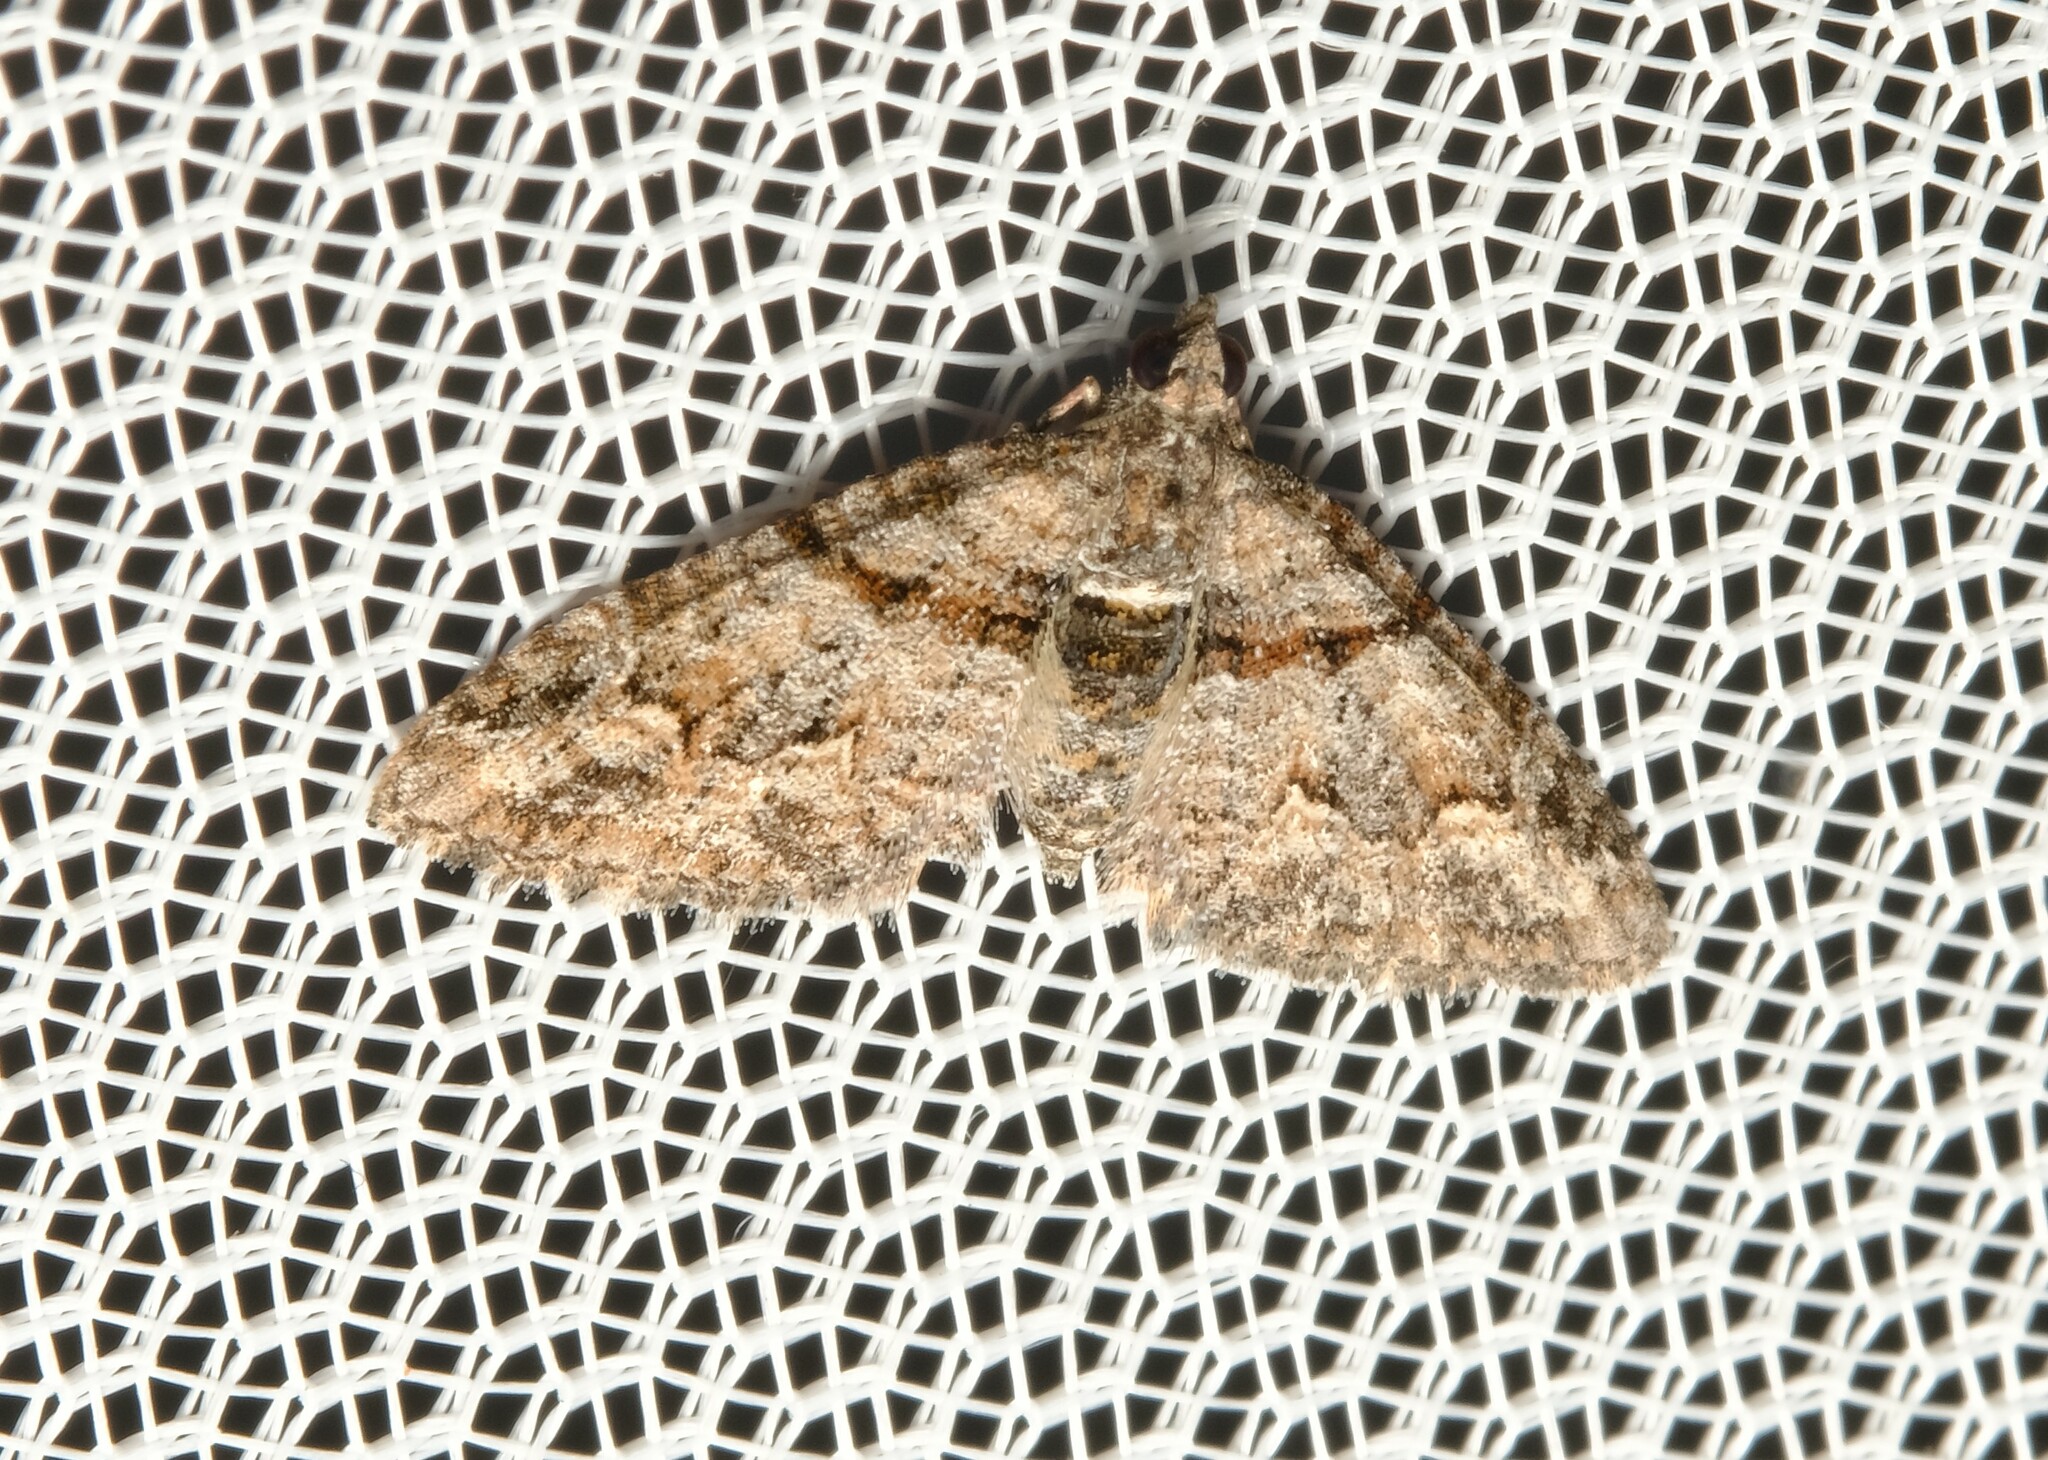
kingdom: Animalia
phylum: Arthropoda
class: Insecta
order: Lepidoptera
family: Geometridae
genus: Phrissogonus
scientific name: Phrissogonus laticostata
